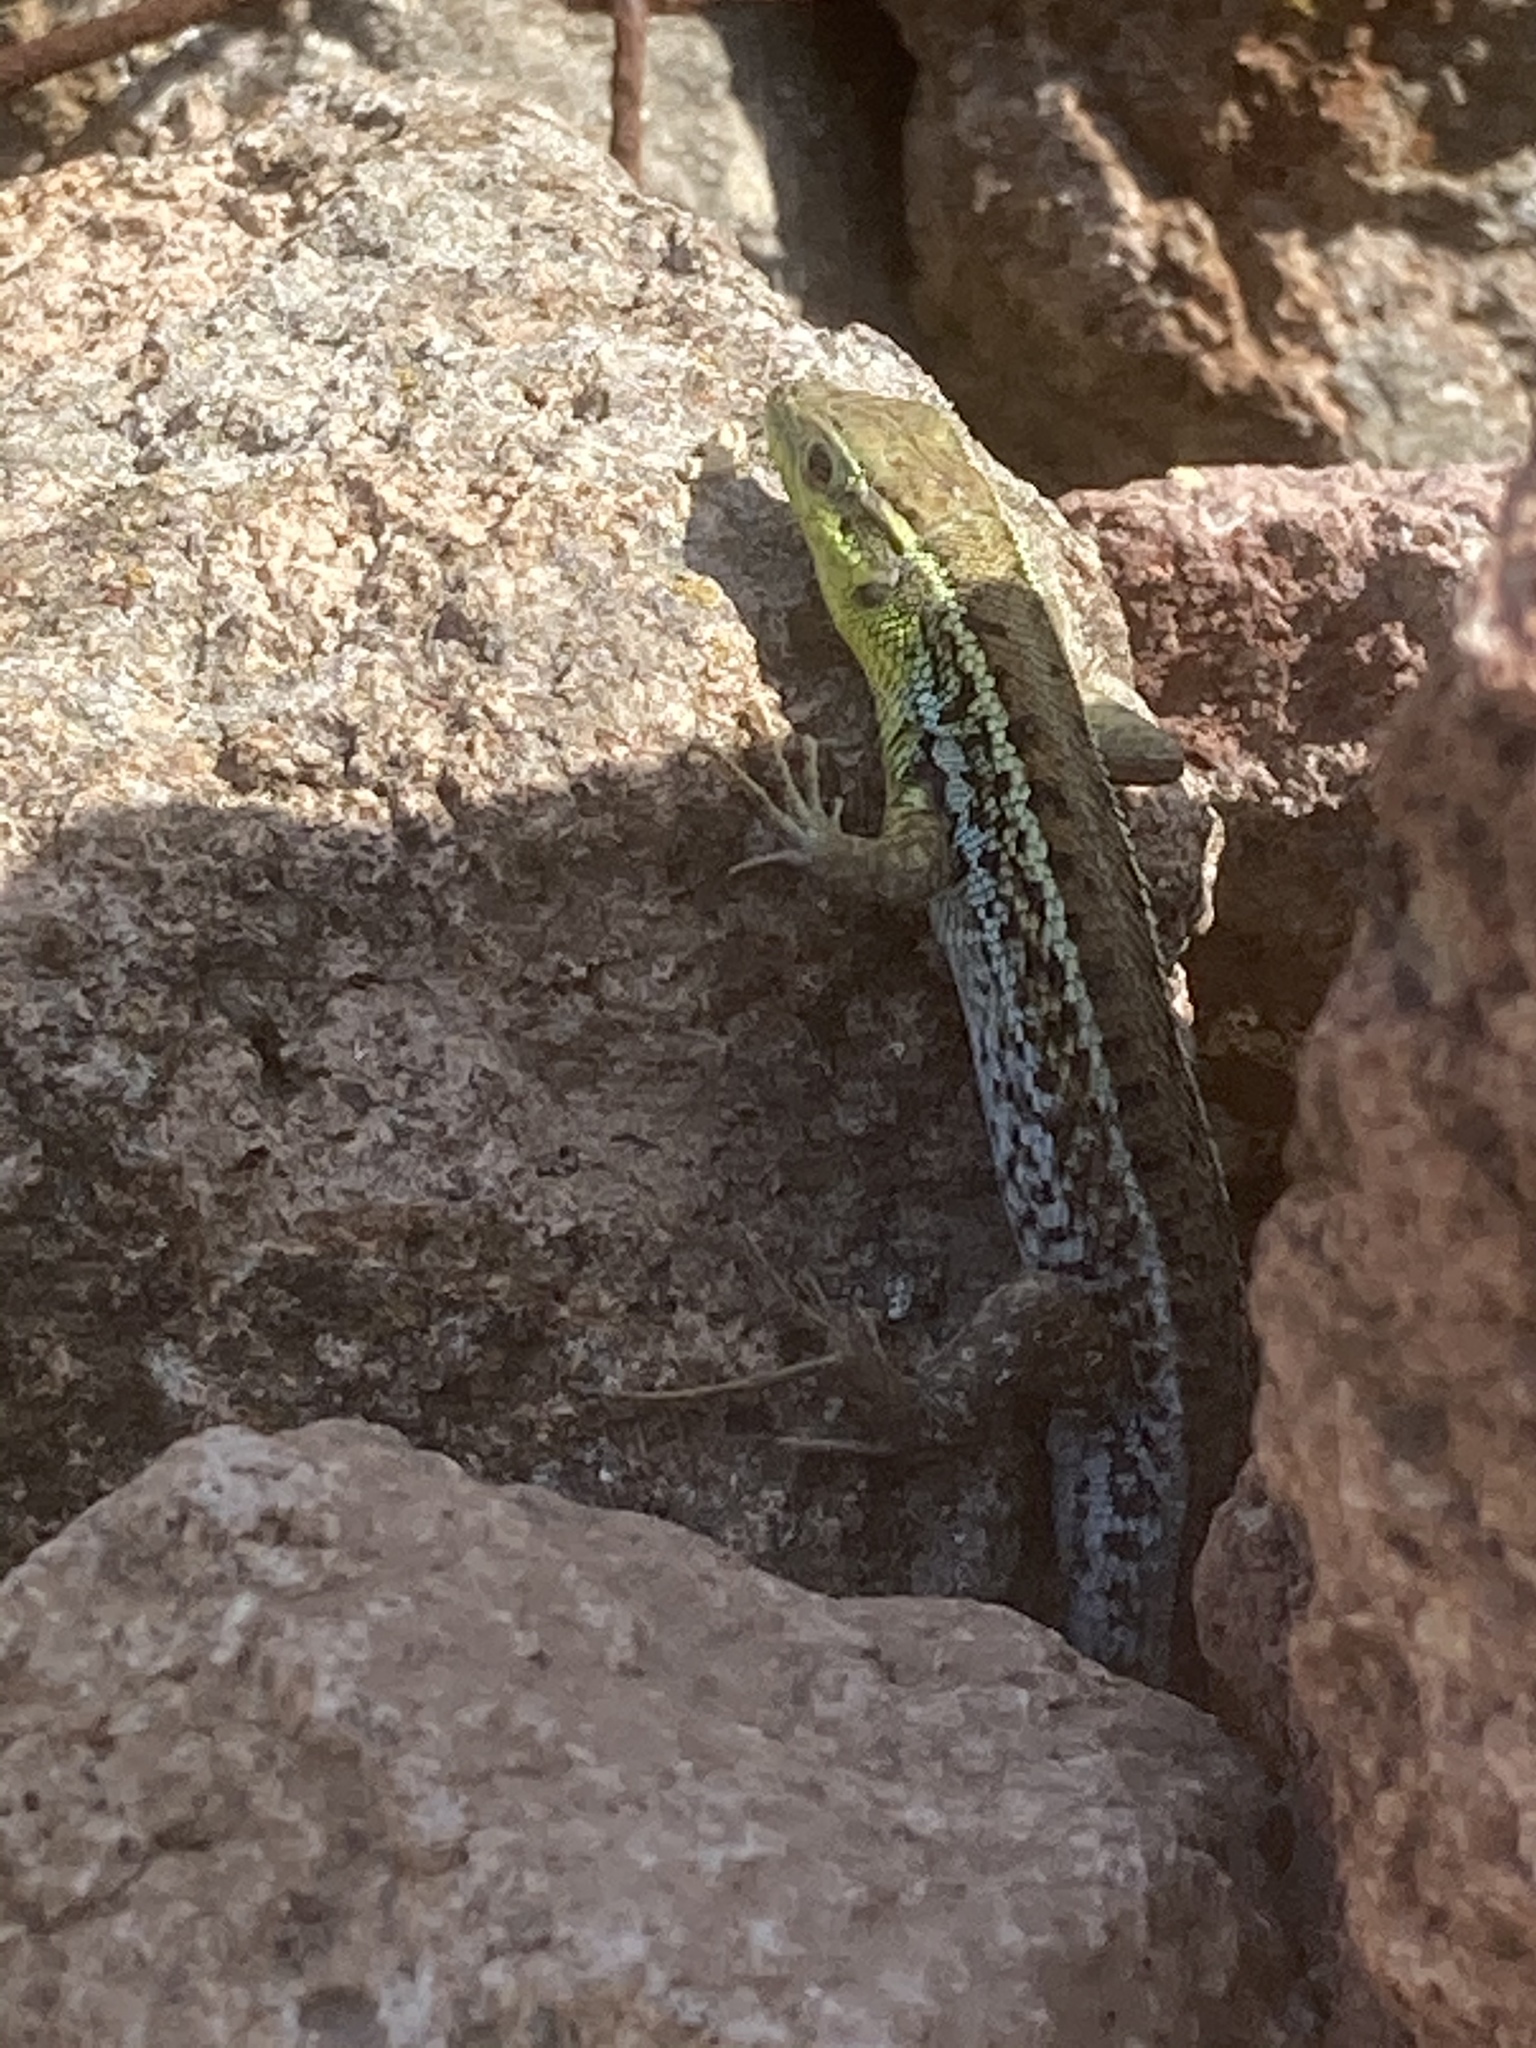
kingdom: Animalia
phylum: Chordata
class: Squamata
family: Lacertidae
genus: Ophisops
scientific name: Ophisops elegans
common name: Snake-eyed lizard
